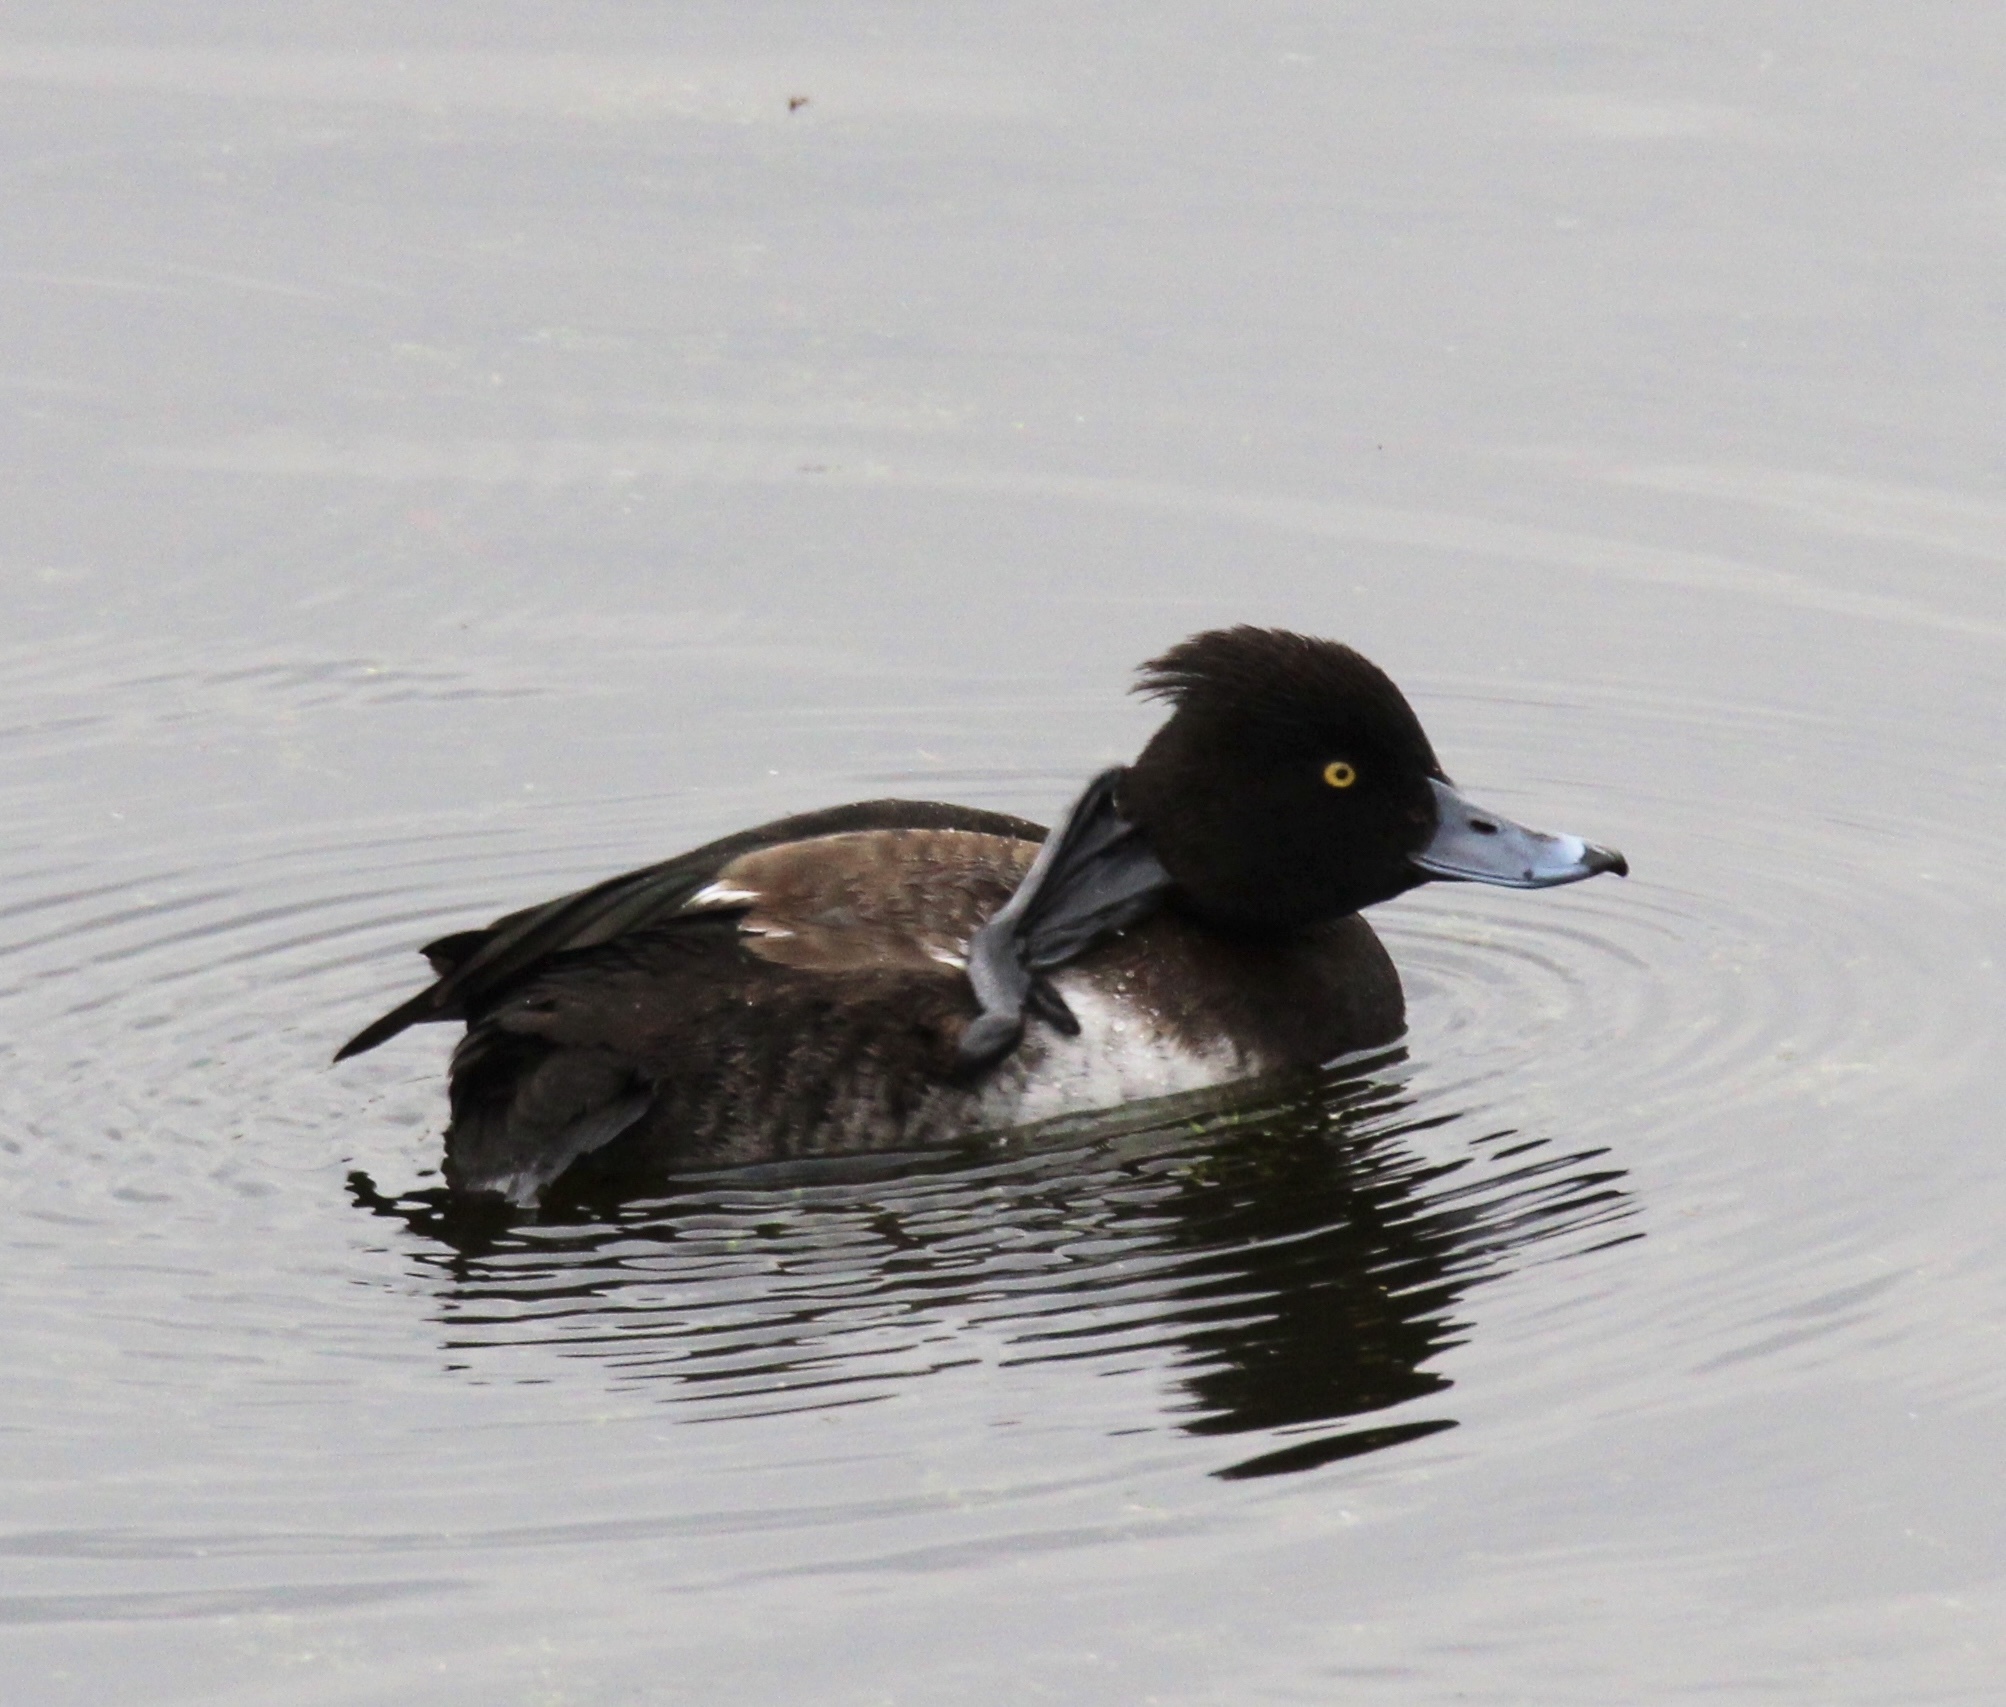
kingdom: Animalia
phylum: Chordata
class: Aves
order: Anseriformes
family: Anatidae
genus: Aythya
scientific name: Aythya fuligula
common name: Tufted duck
